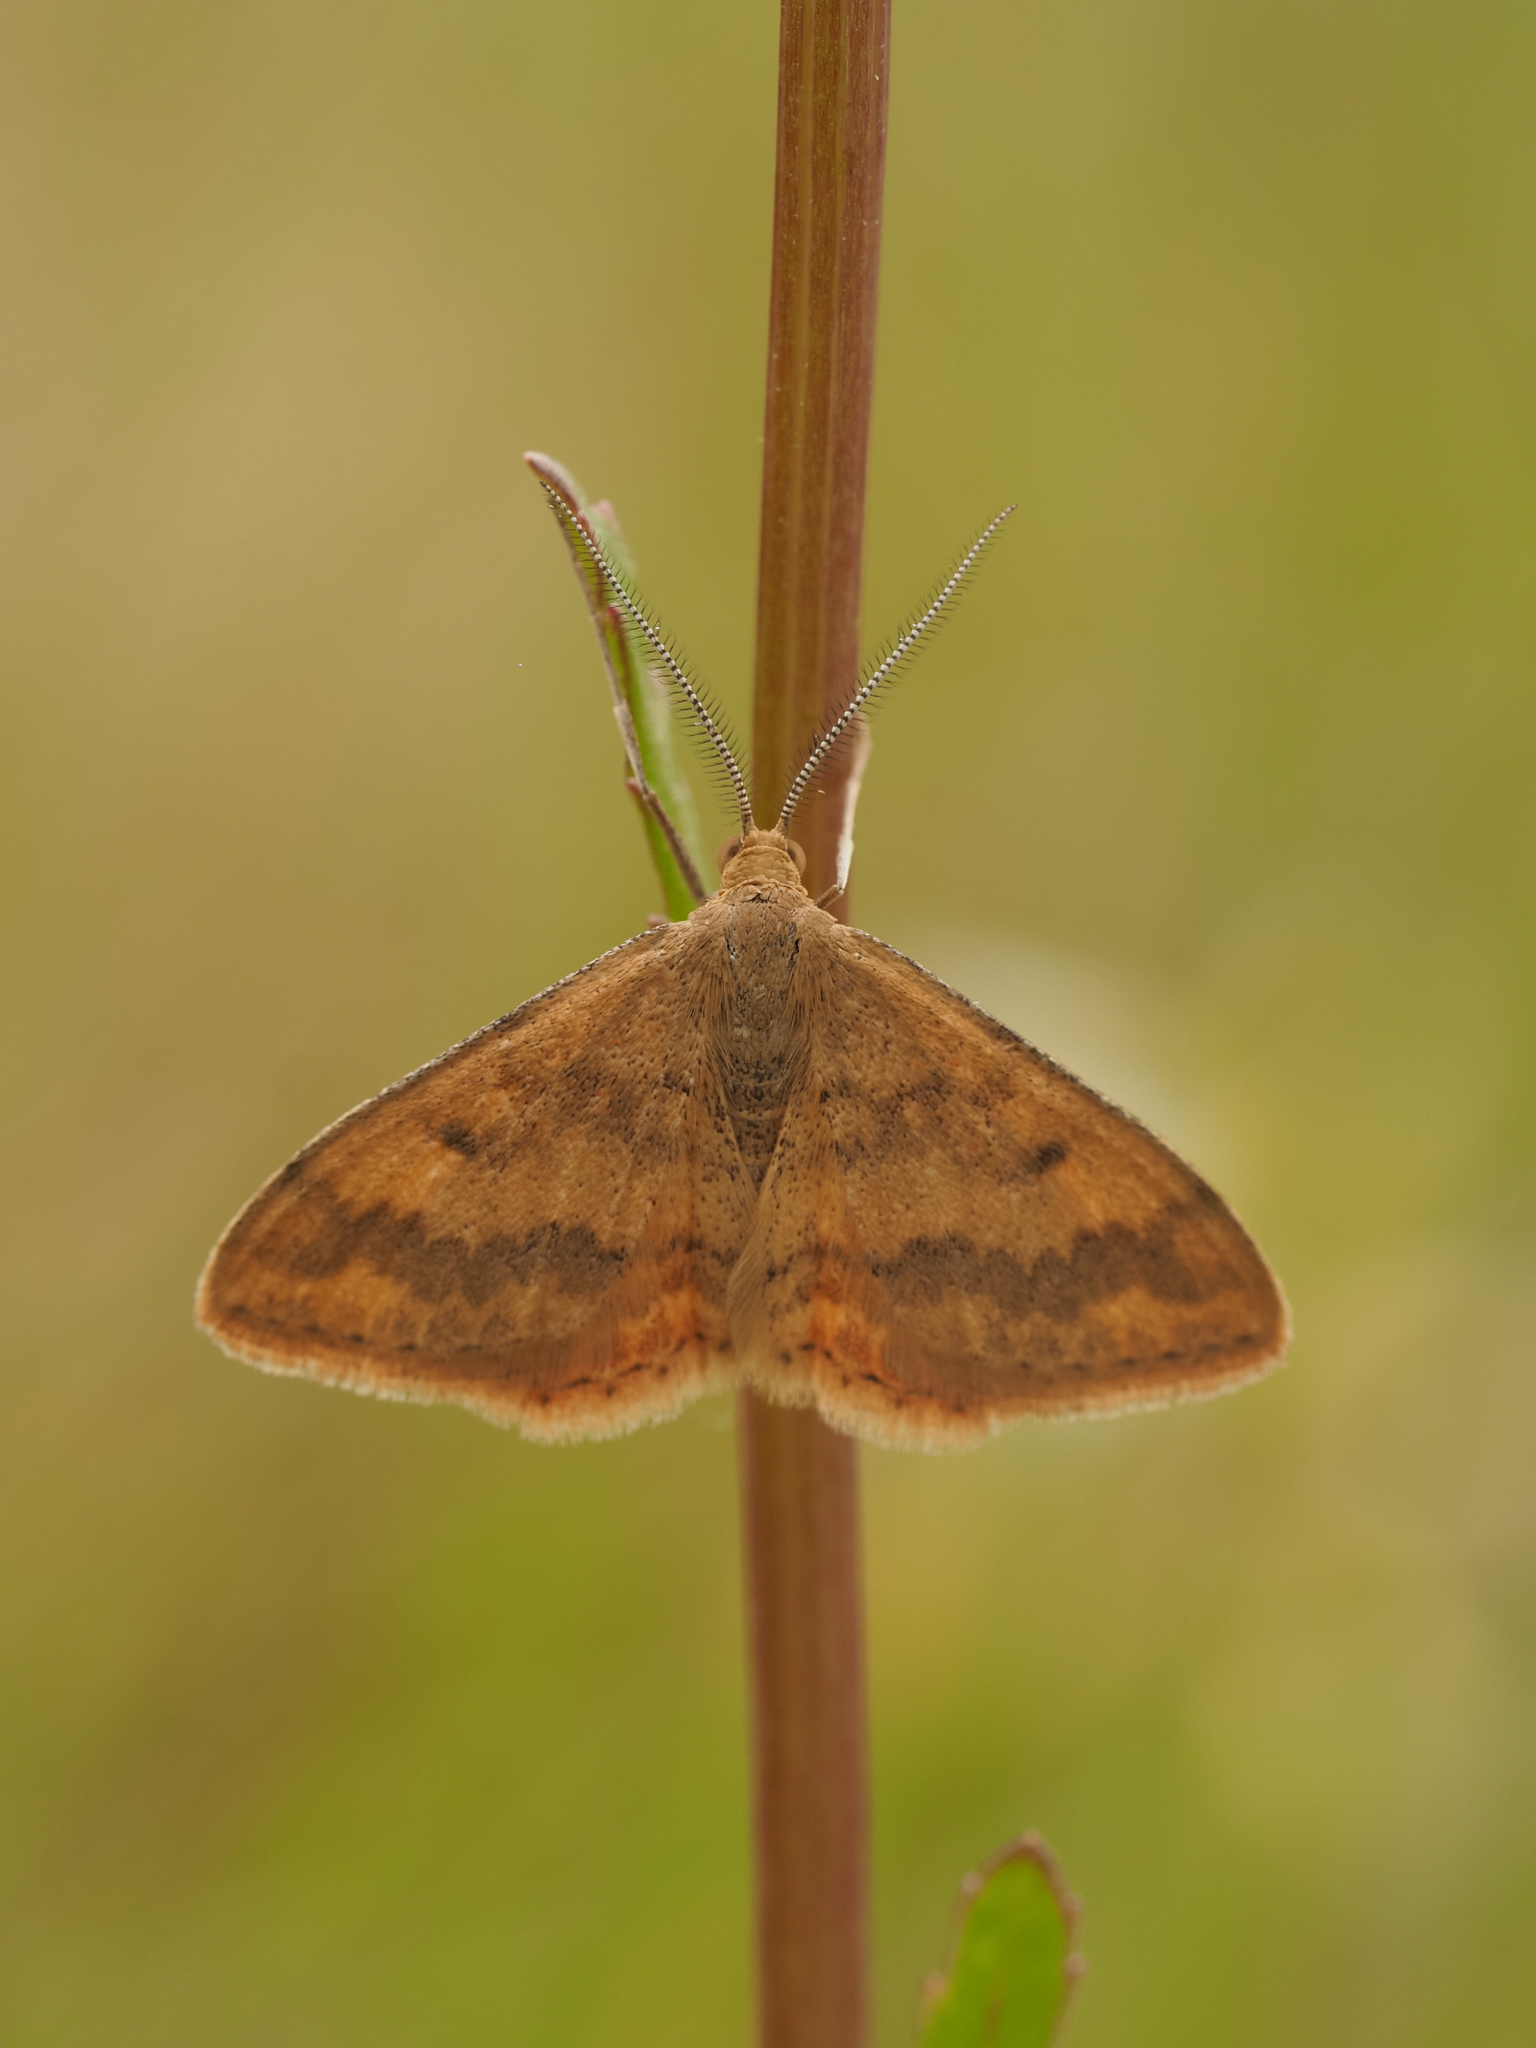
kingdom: Animalia
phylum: Arthropoda
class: Insecta
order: Lepidoptera
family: Geometridae
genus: Scopula
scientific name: Scopula rubraria
